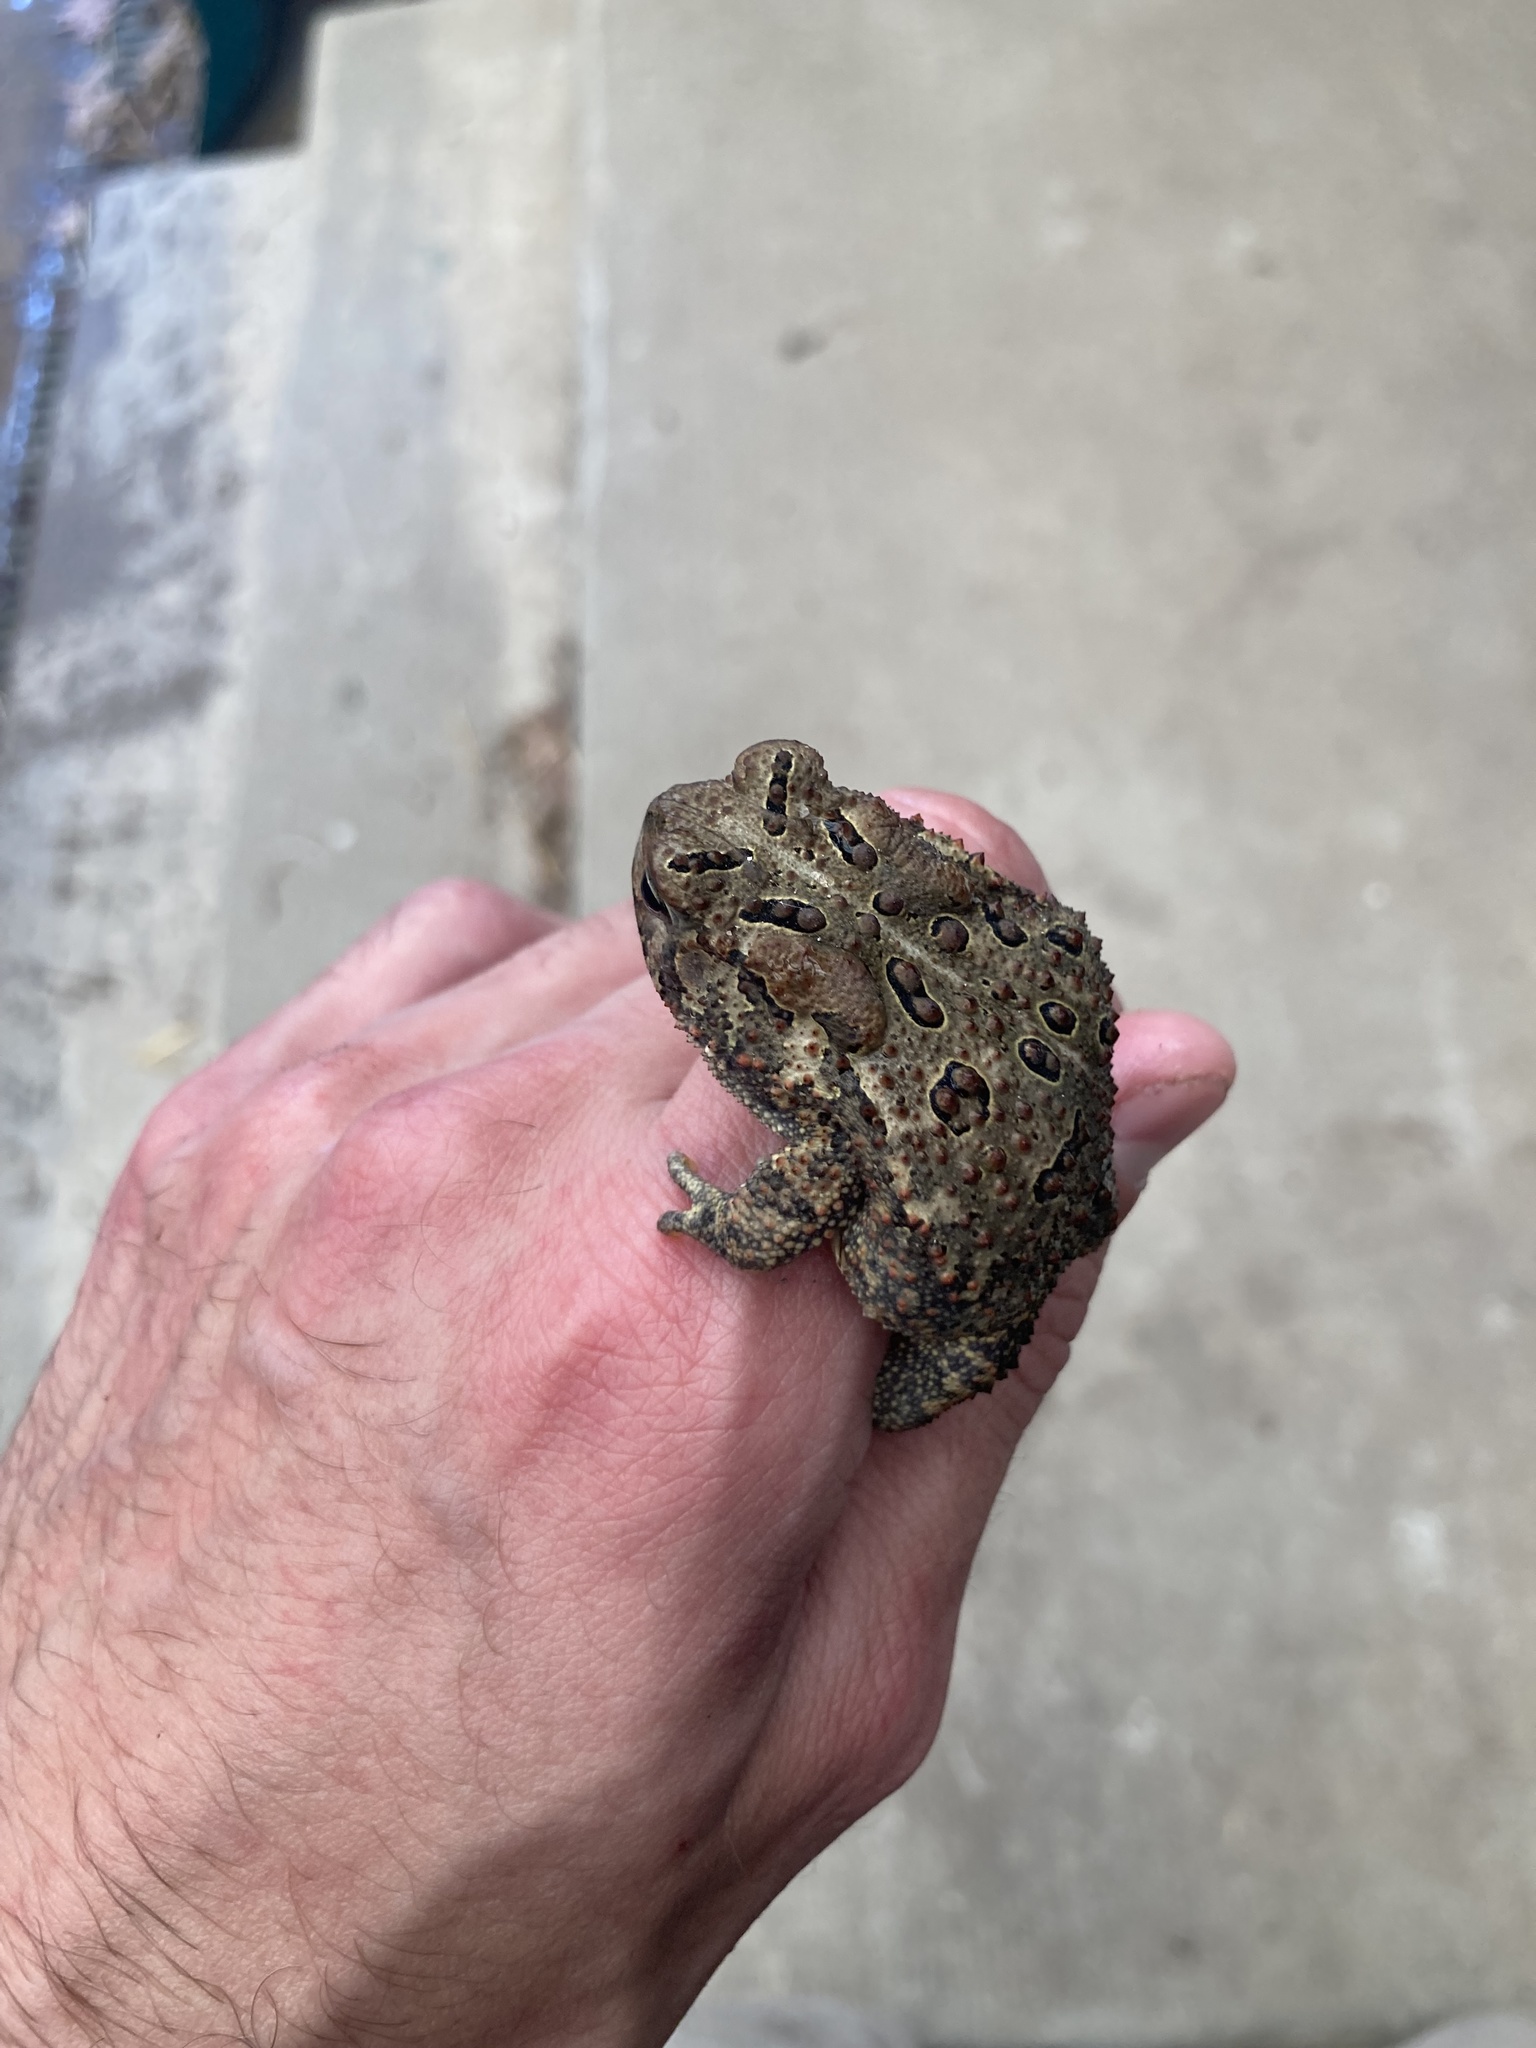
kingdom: Animalia
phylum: Chordata
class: Amphibia
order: Anura
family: Bufonidae
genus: Anaxyrus
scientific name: Anaxyrus americanus
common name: American toad
